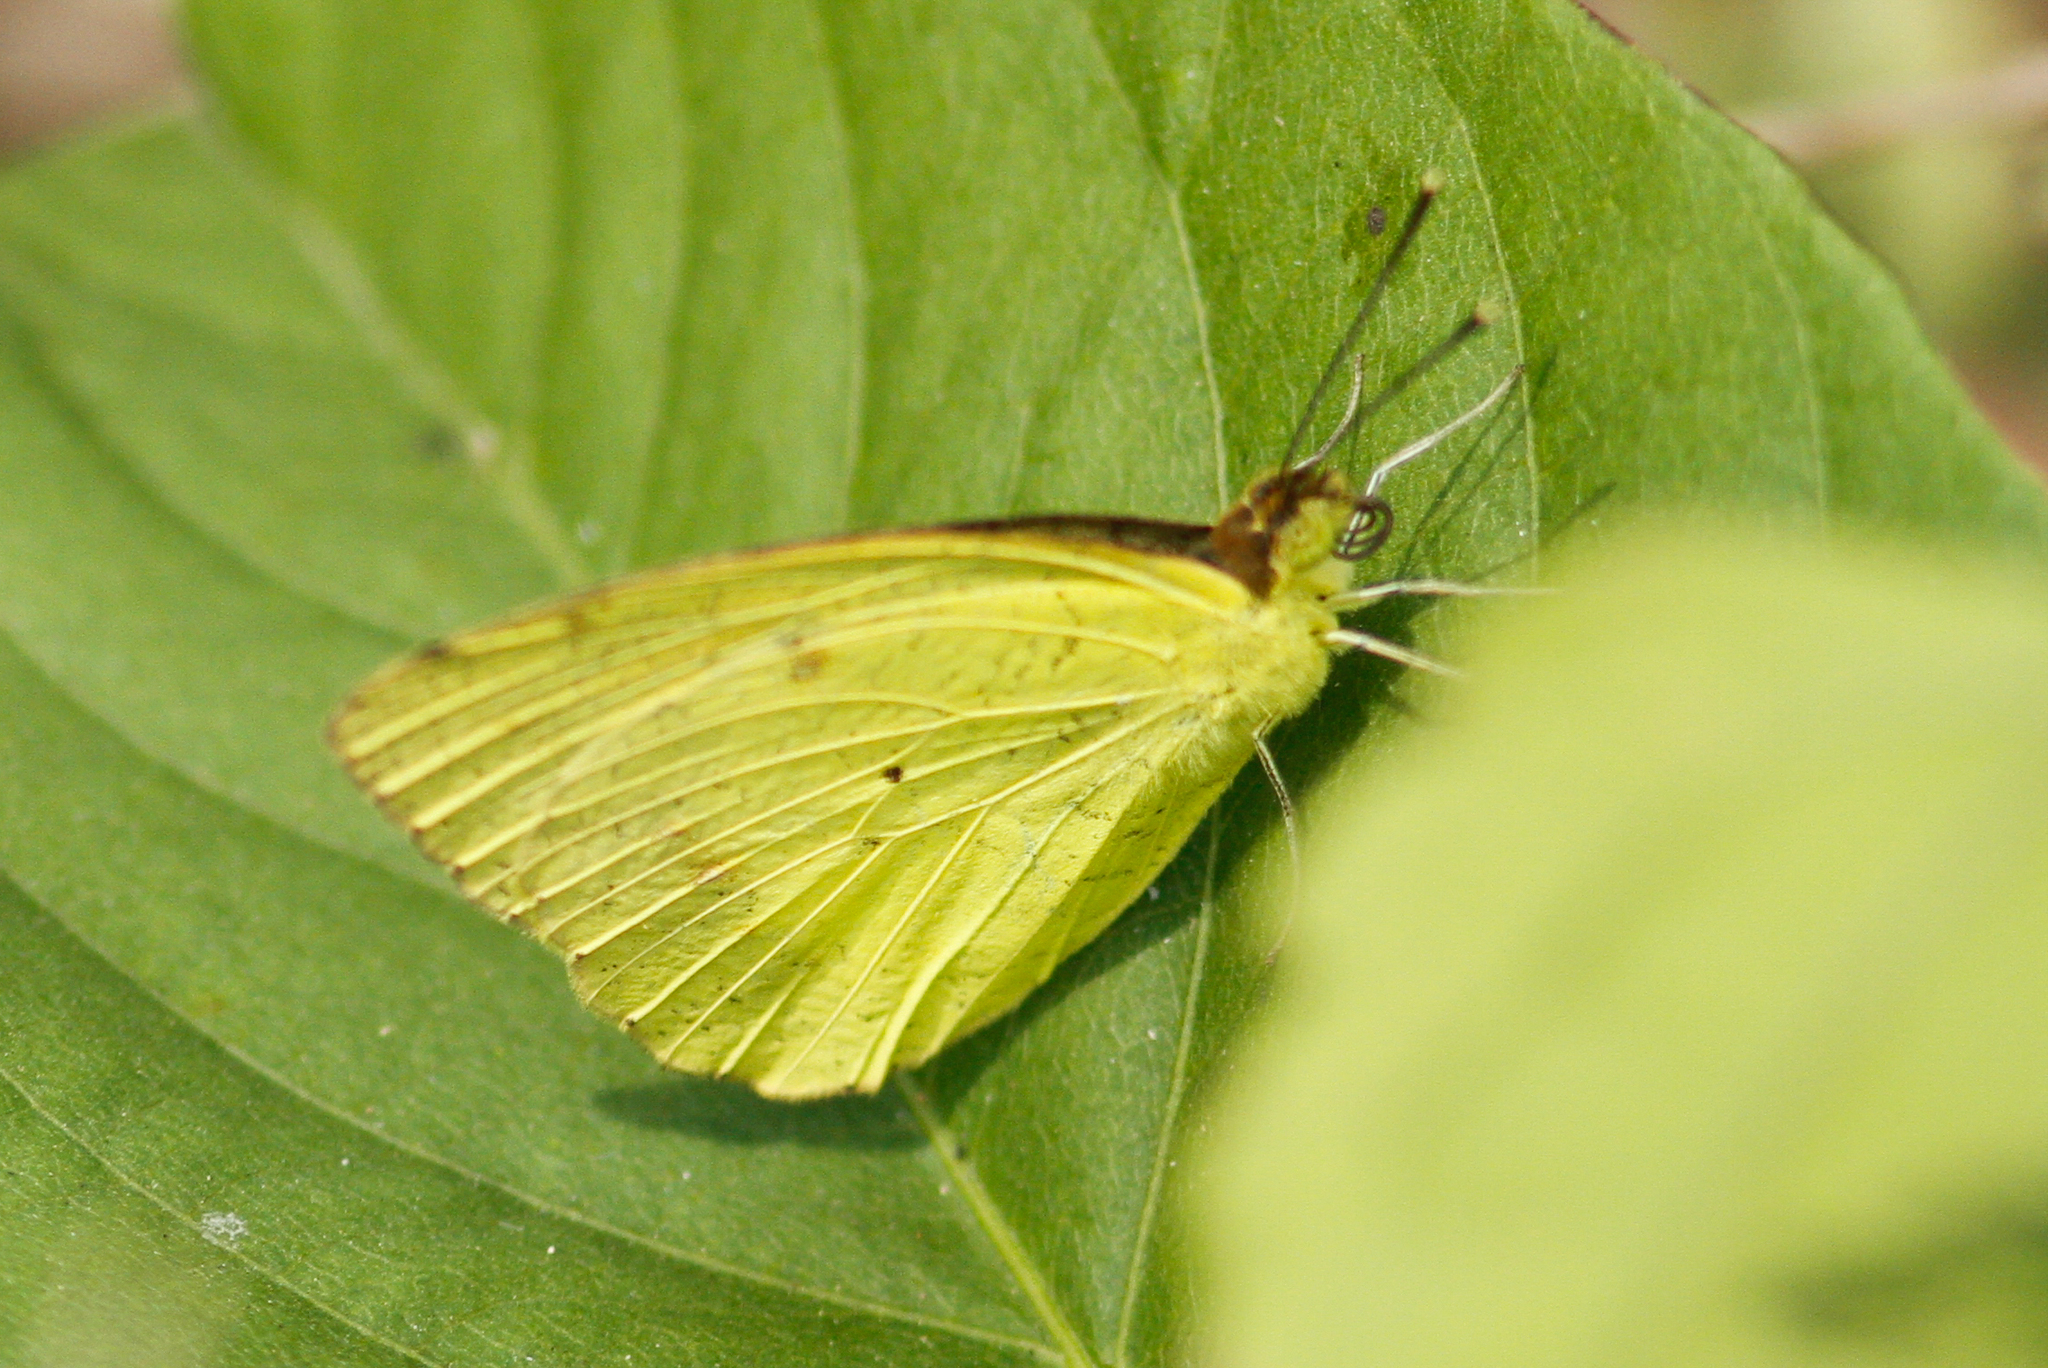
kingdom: Animalia
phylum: Arthropoda
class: Insecta
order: Lepidoptera
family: Pieridae
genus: Eurema
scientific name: Eurema brigitta
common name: Small grass yellow
